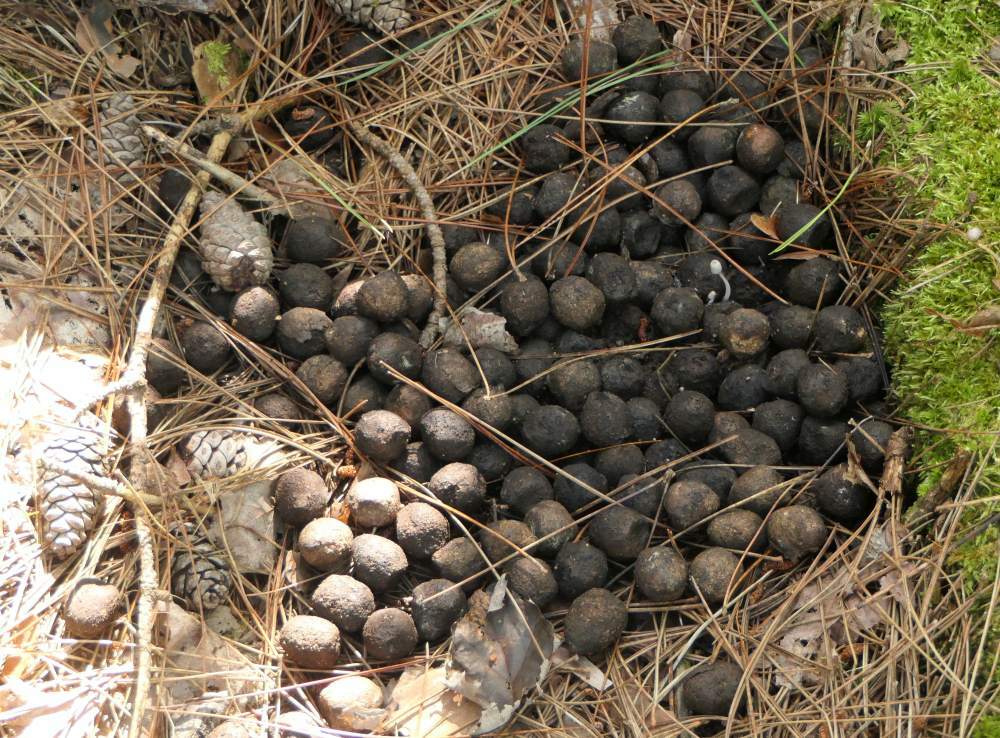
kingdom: Animalia
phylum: Chordata
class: Mammalia
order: Artiodactyla
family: Cervidae
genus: Alces
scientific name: Alces alces
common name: Moose
